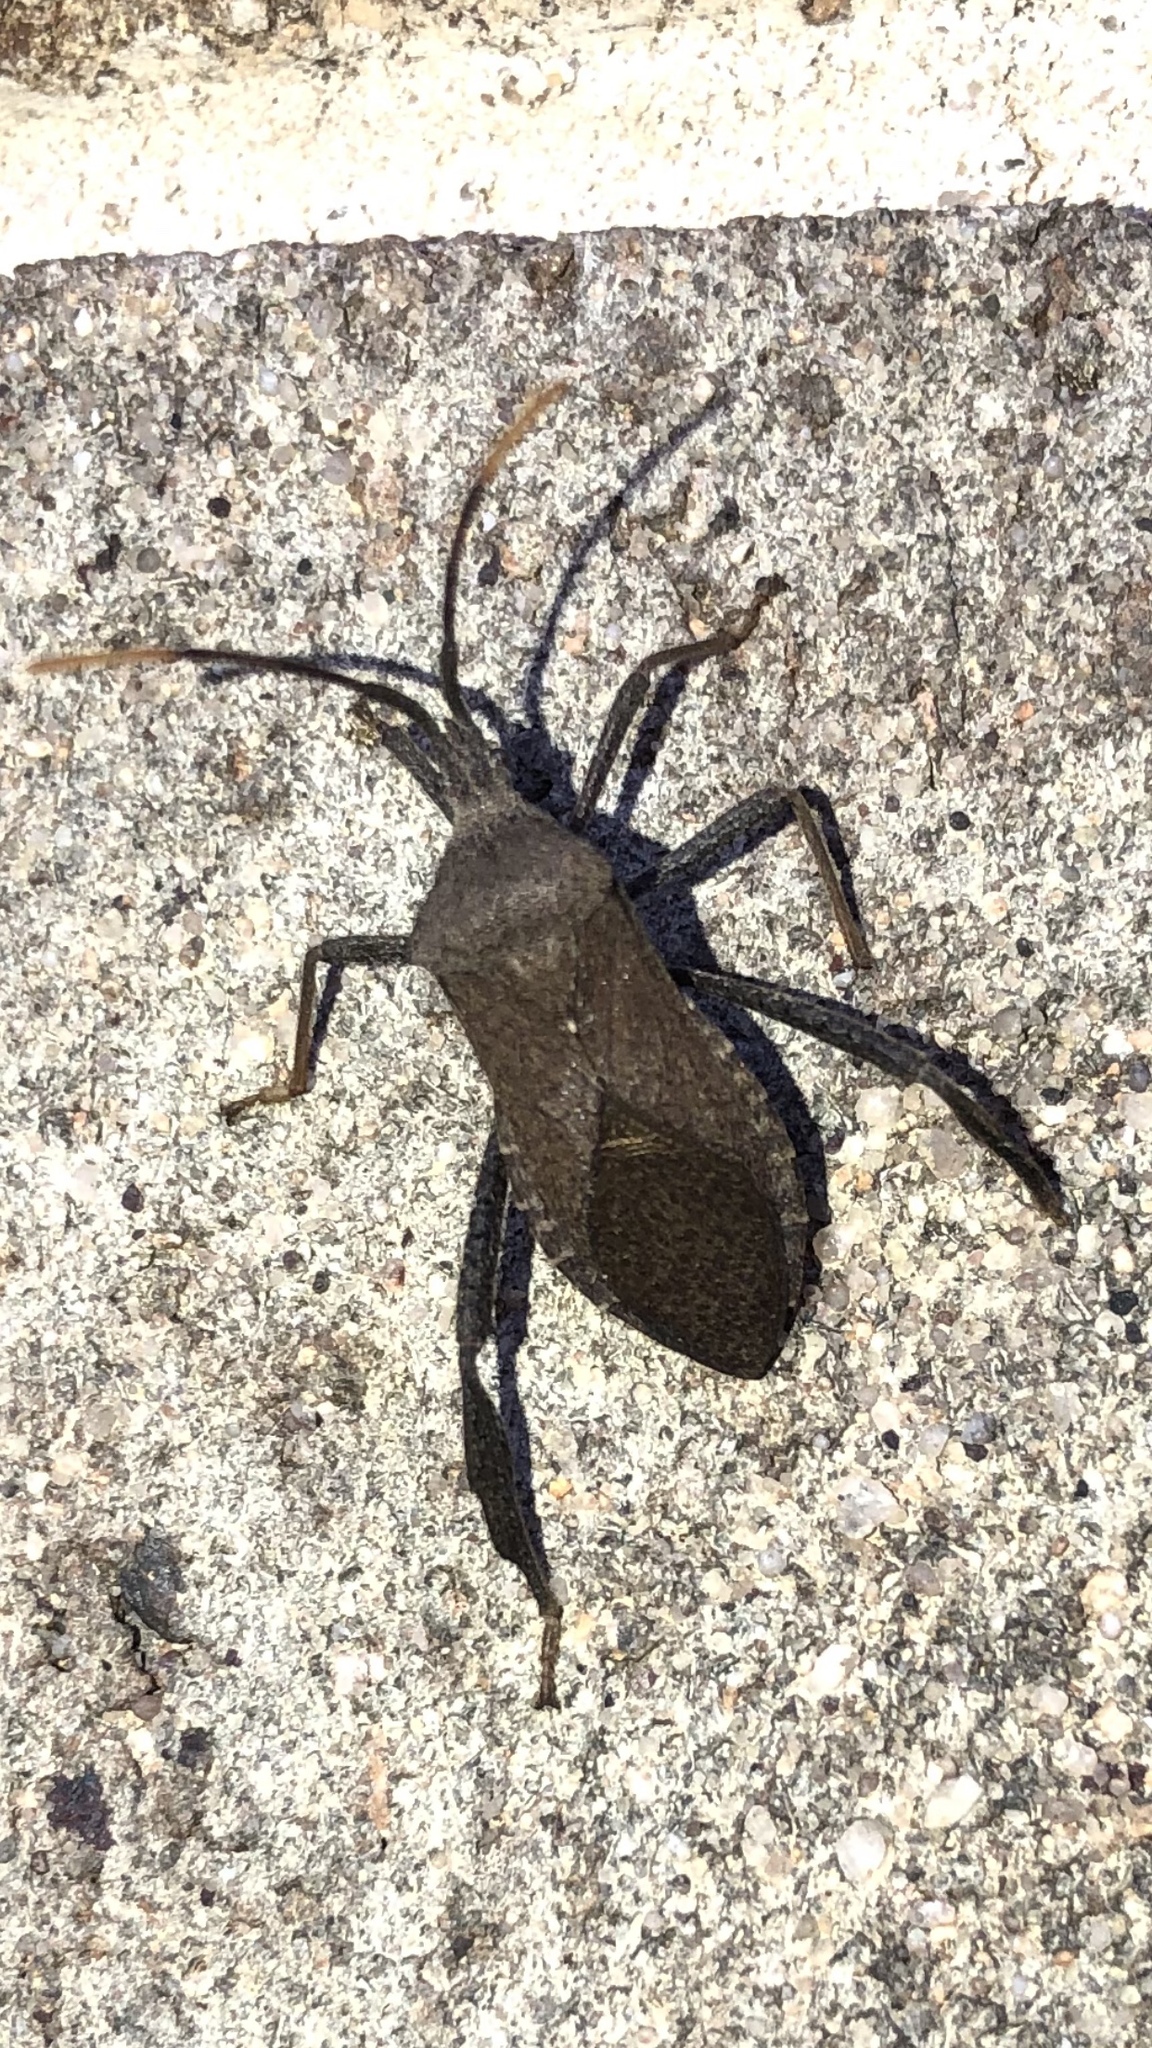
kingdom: Animalia
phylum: Arthropoda
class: Insecta
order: Hemiptera
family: Coreidae
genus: Acanthocephala
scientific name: Acanthocephala terminalis
